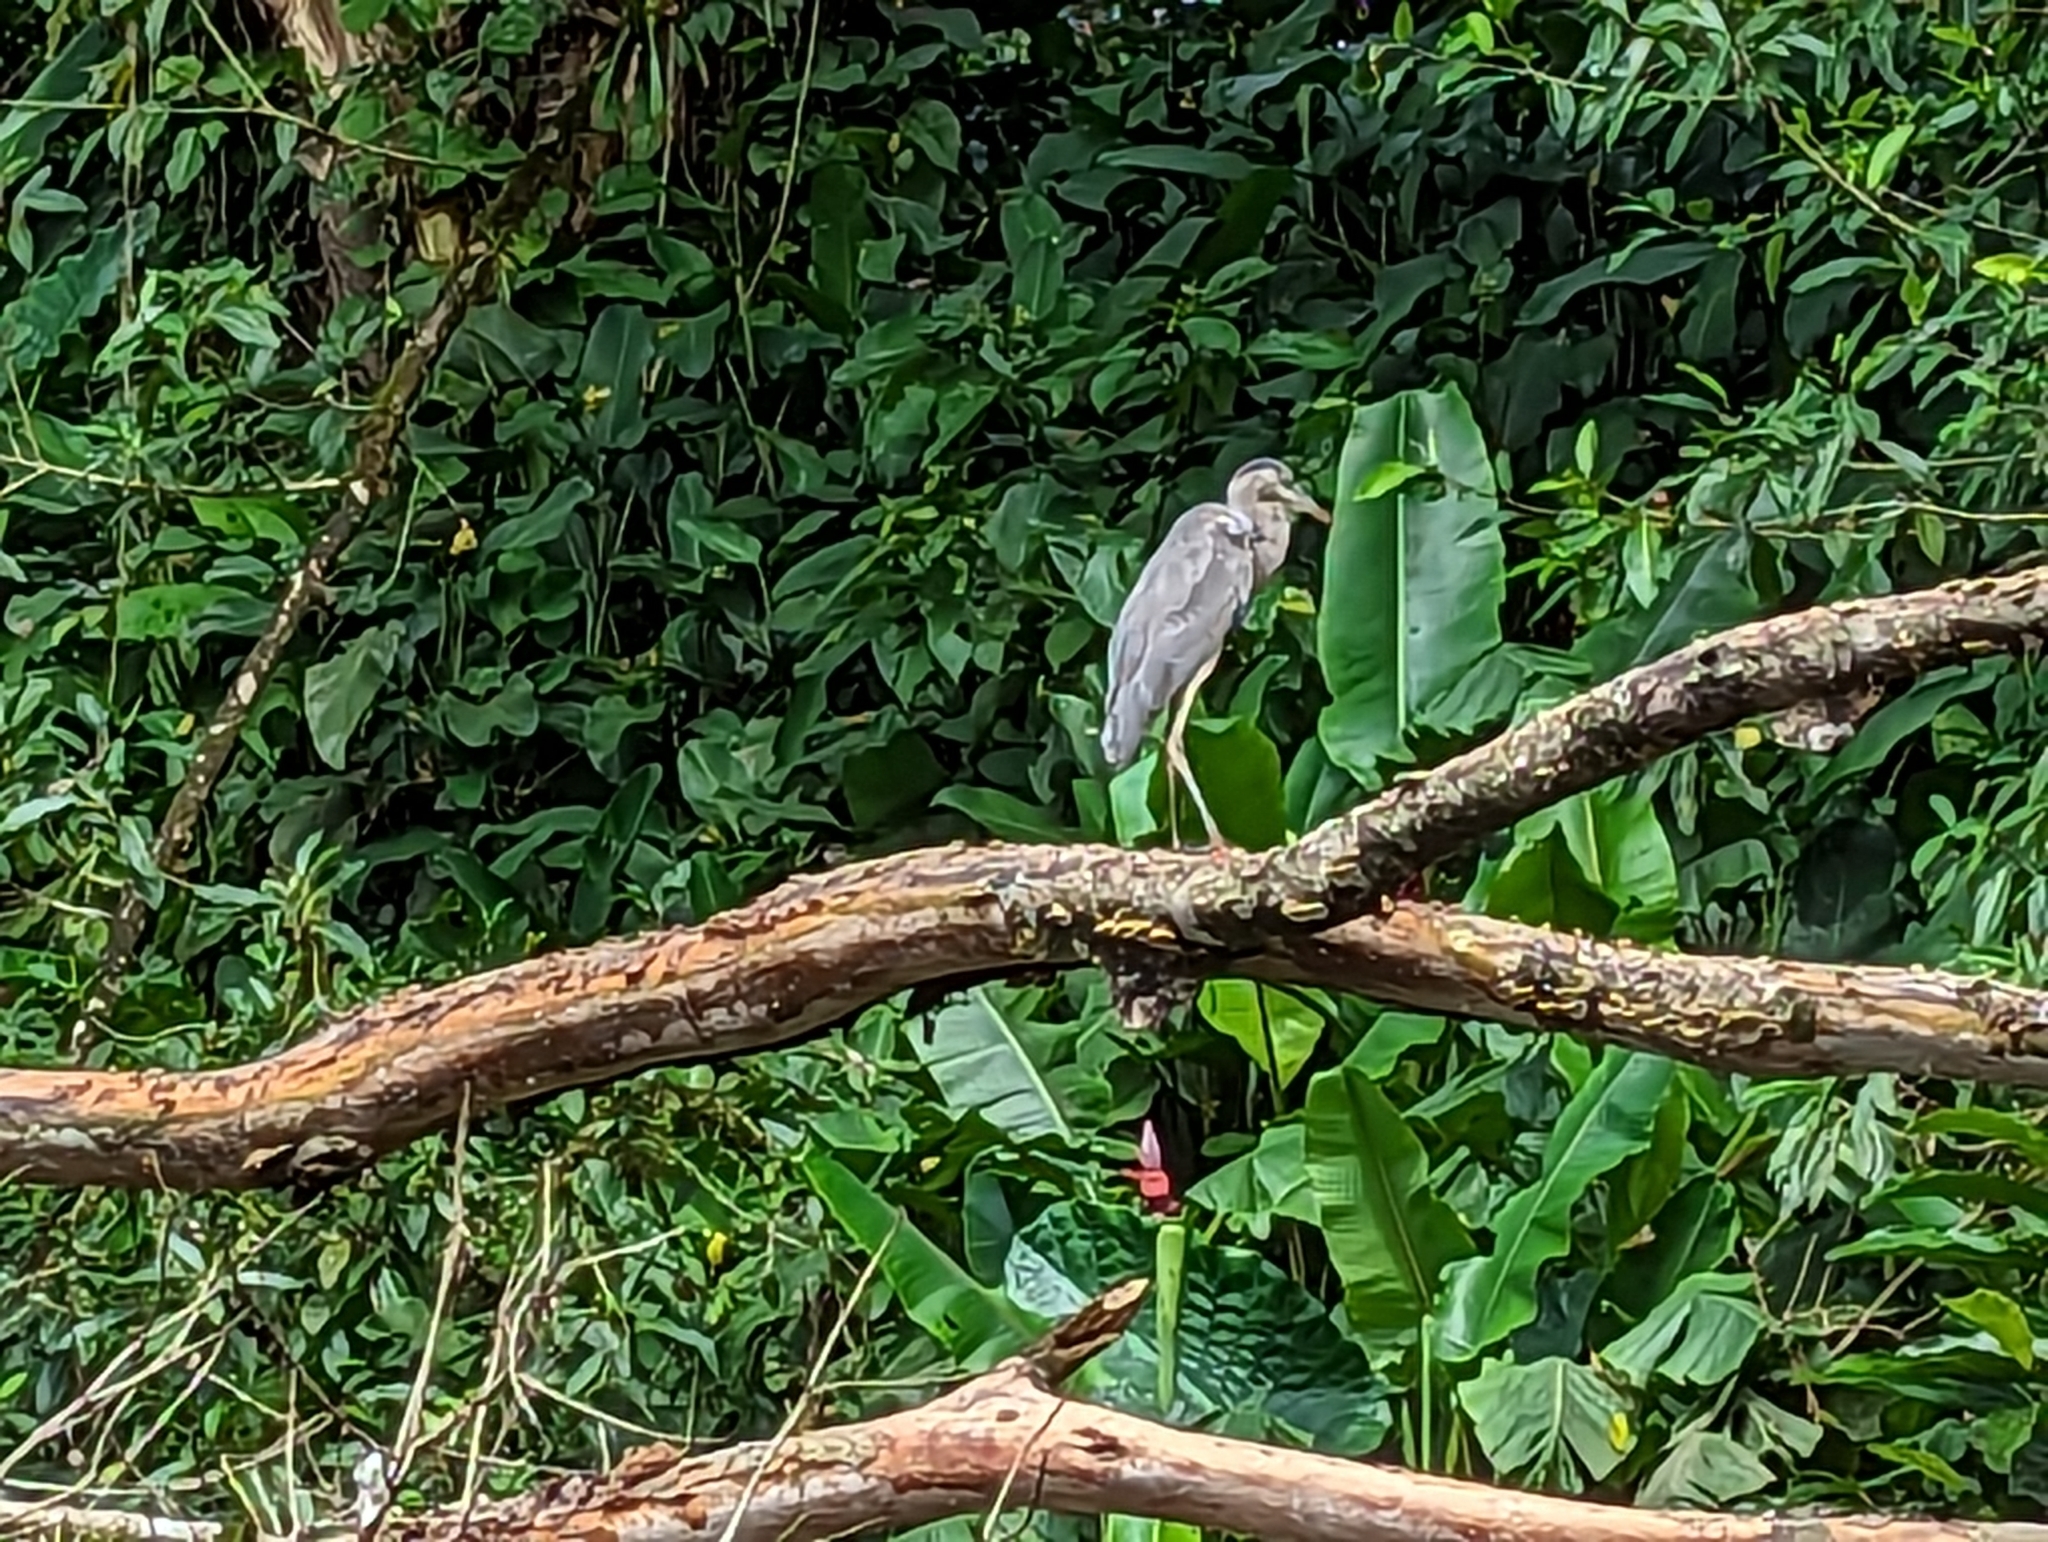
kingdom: Animalia
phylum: Chordata
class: Aves
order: Pelecaniformes
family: Ardeidae
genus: Ardea
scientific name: Ardea herodias
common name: Great blue heron
